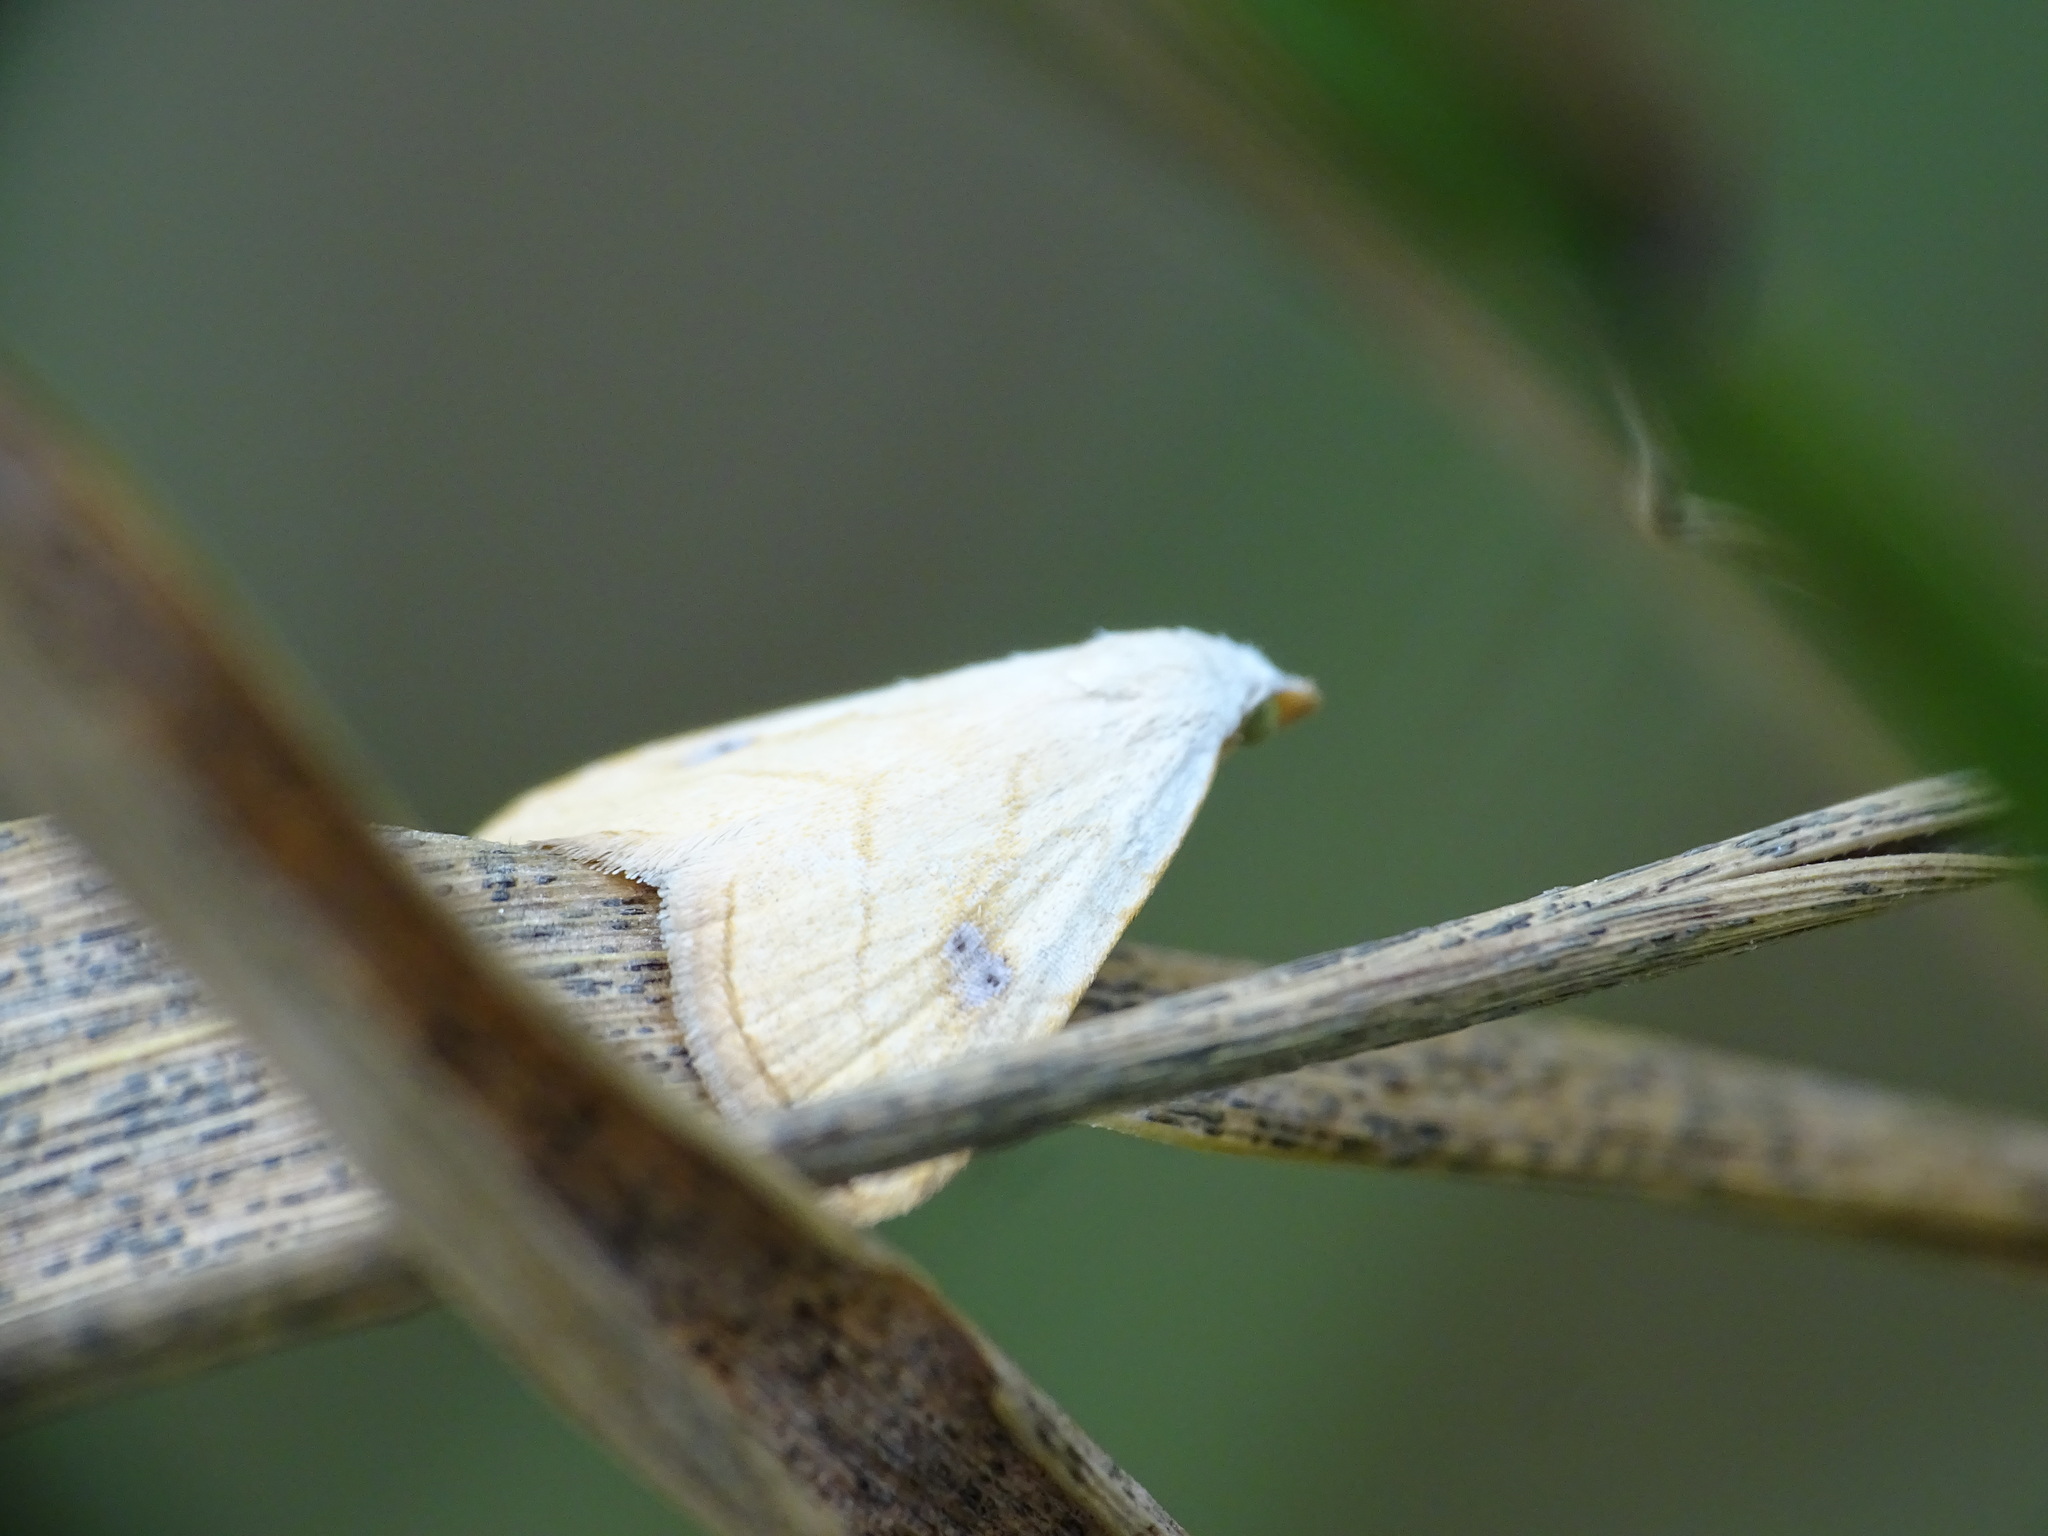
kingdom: Animalia
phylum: Arthropoda
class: Insecta
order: Lepidoptera
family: Erebidae
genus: Rivula
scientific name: Rivula propinqualis
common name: Spotted grass moth
